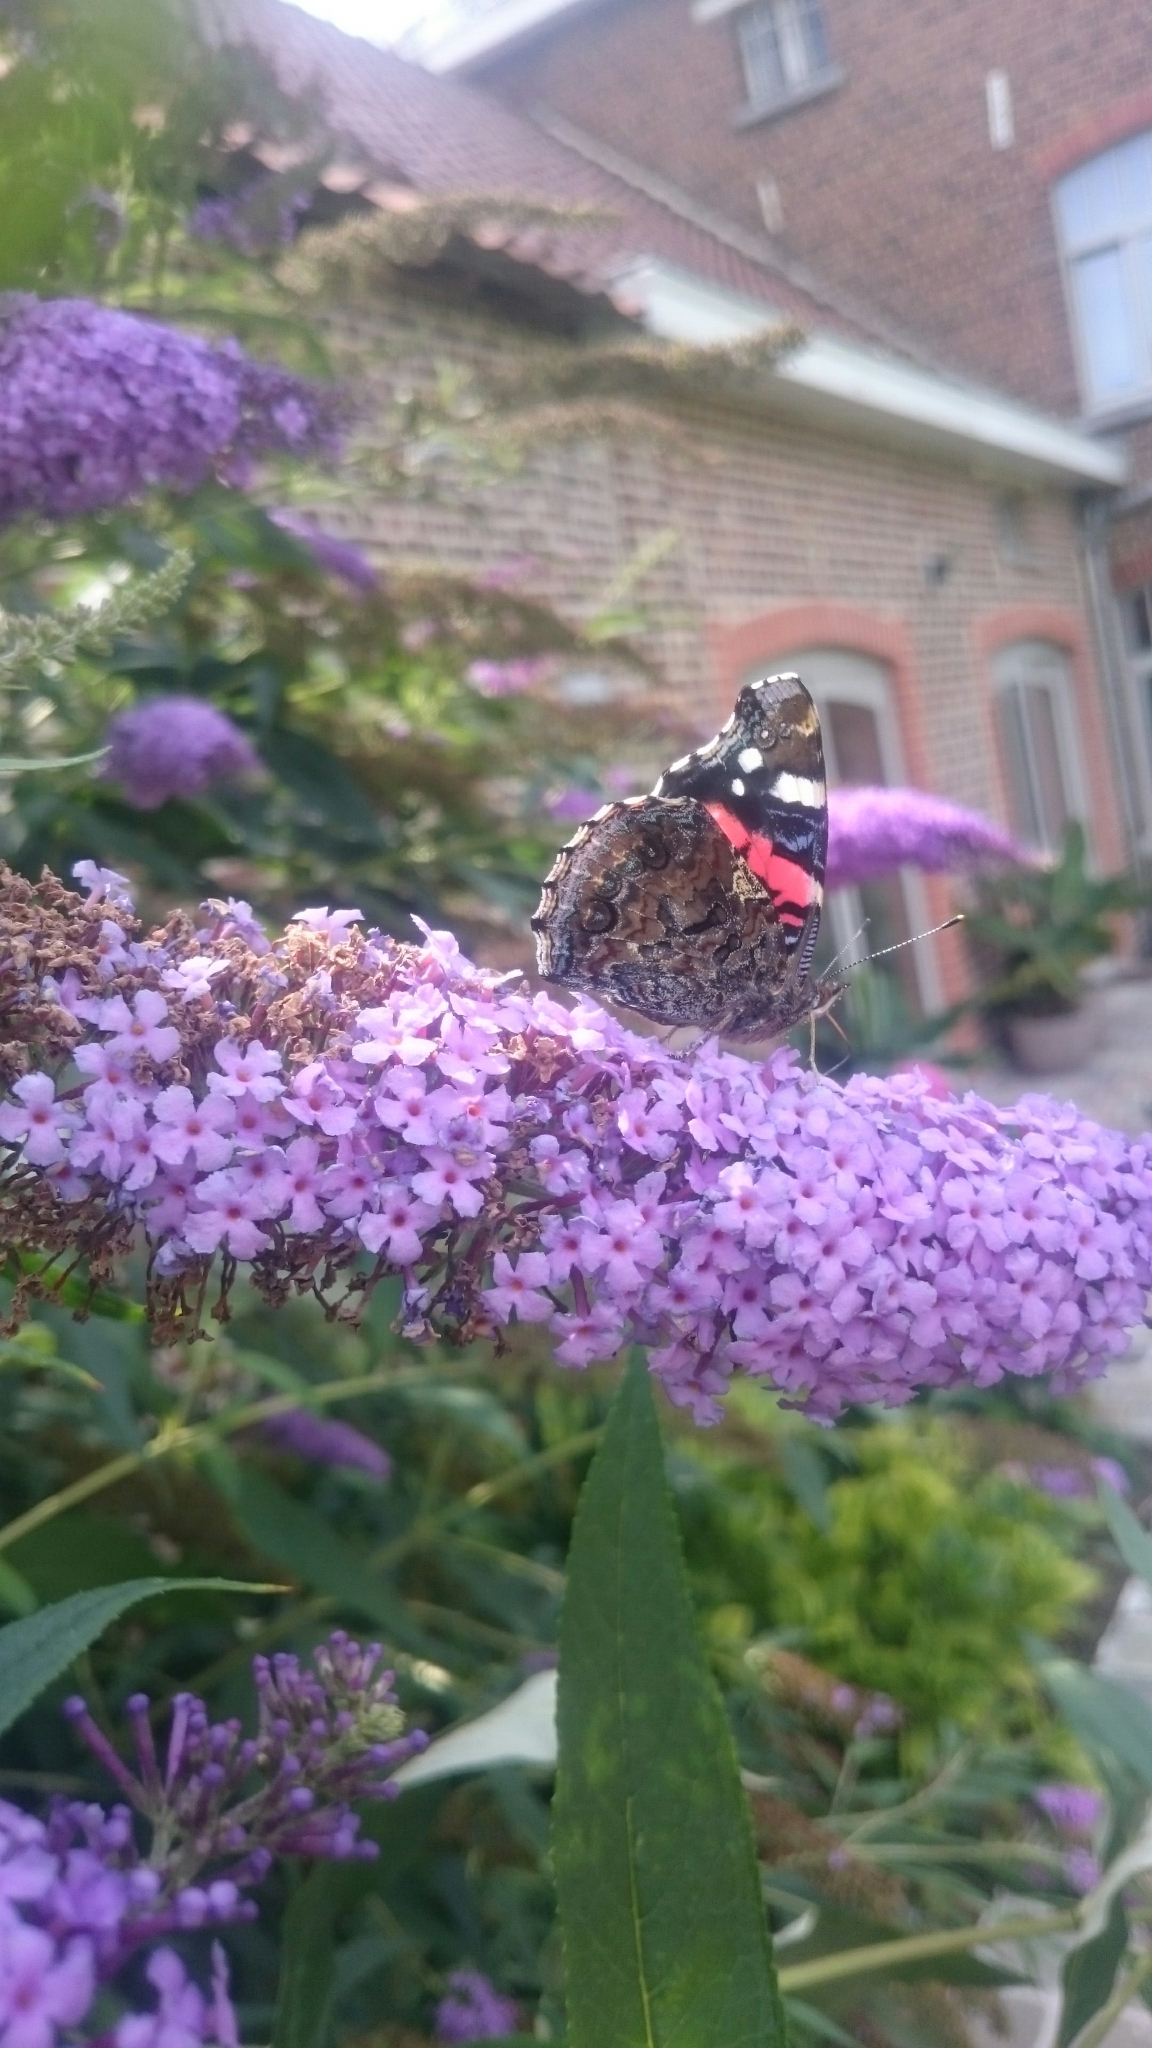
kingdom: Animalia
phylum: Arthropoda
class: Insecta
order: Lepidoptera
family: Nymphalidae
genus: Vanessa
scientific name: Vanessa atalanta
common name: Red admiral
